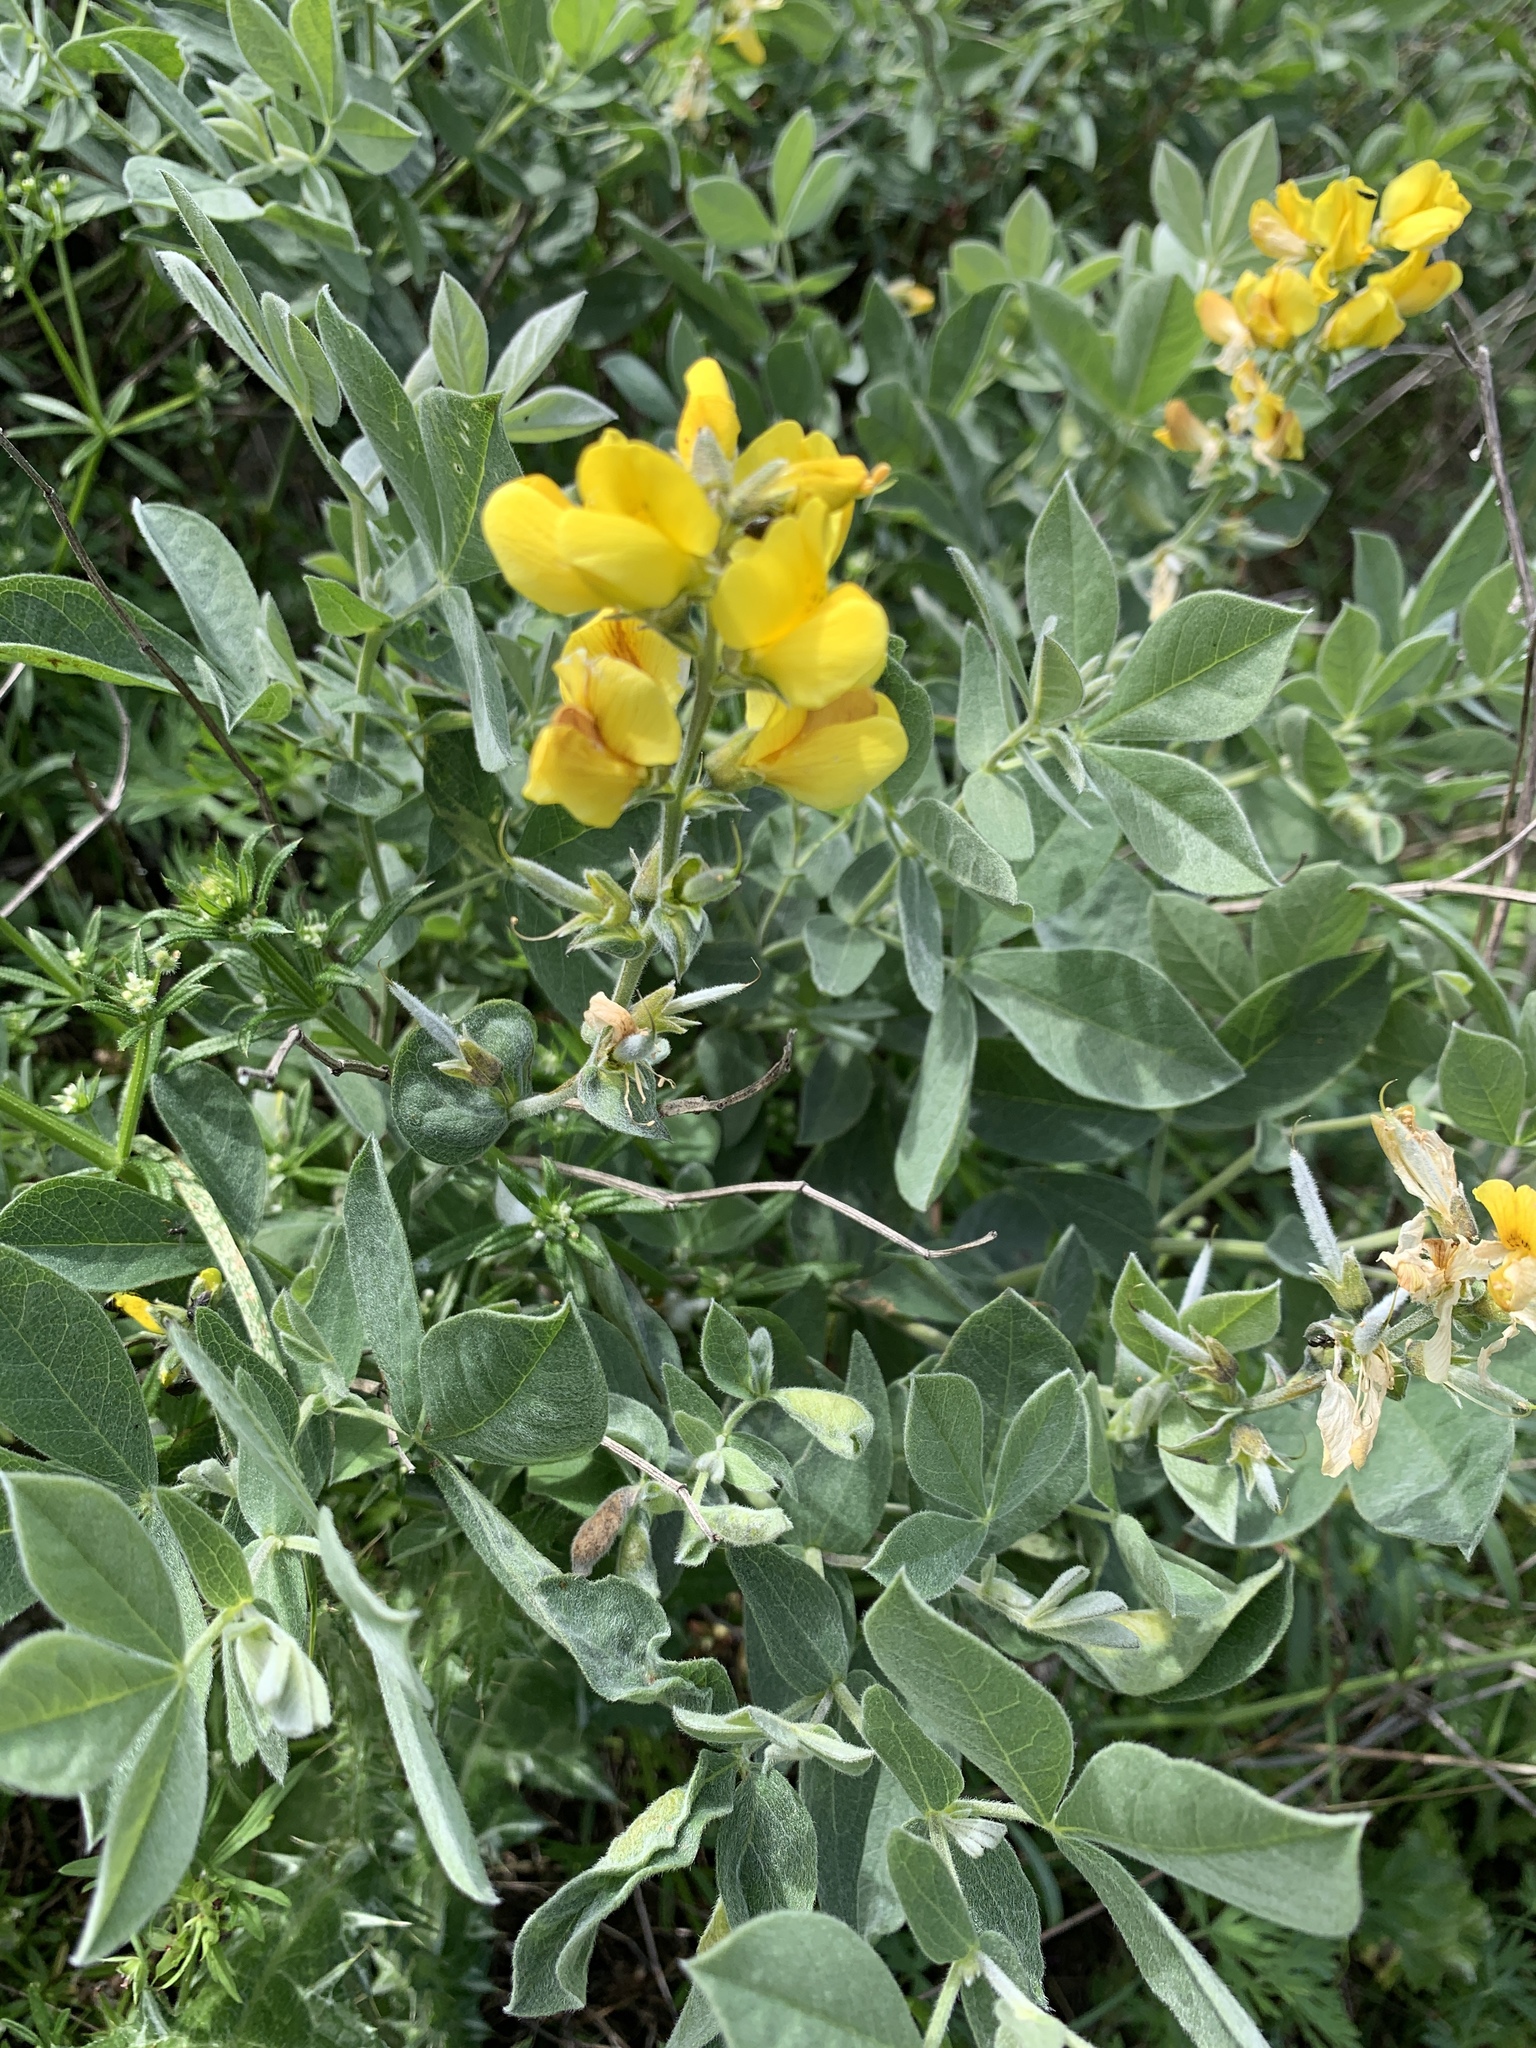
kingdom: Plantae
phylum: Tracheophyta
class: Magnoliopsida
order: Fabales
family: Fabaceae
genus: Thermopsis
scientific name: Thermopsis californica
